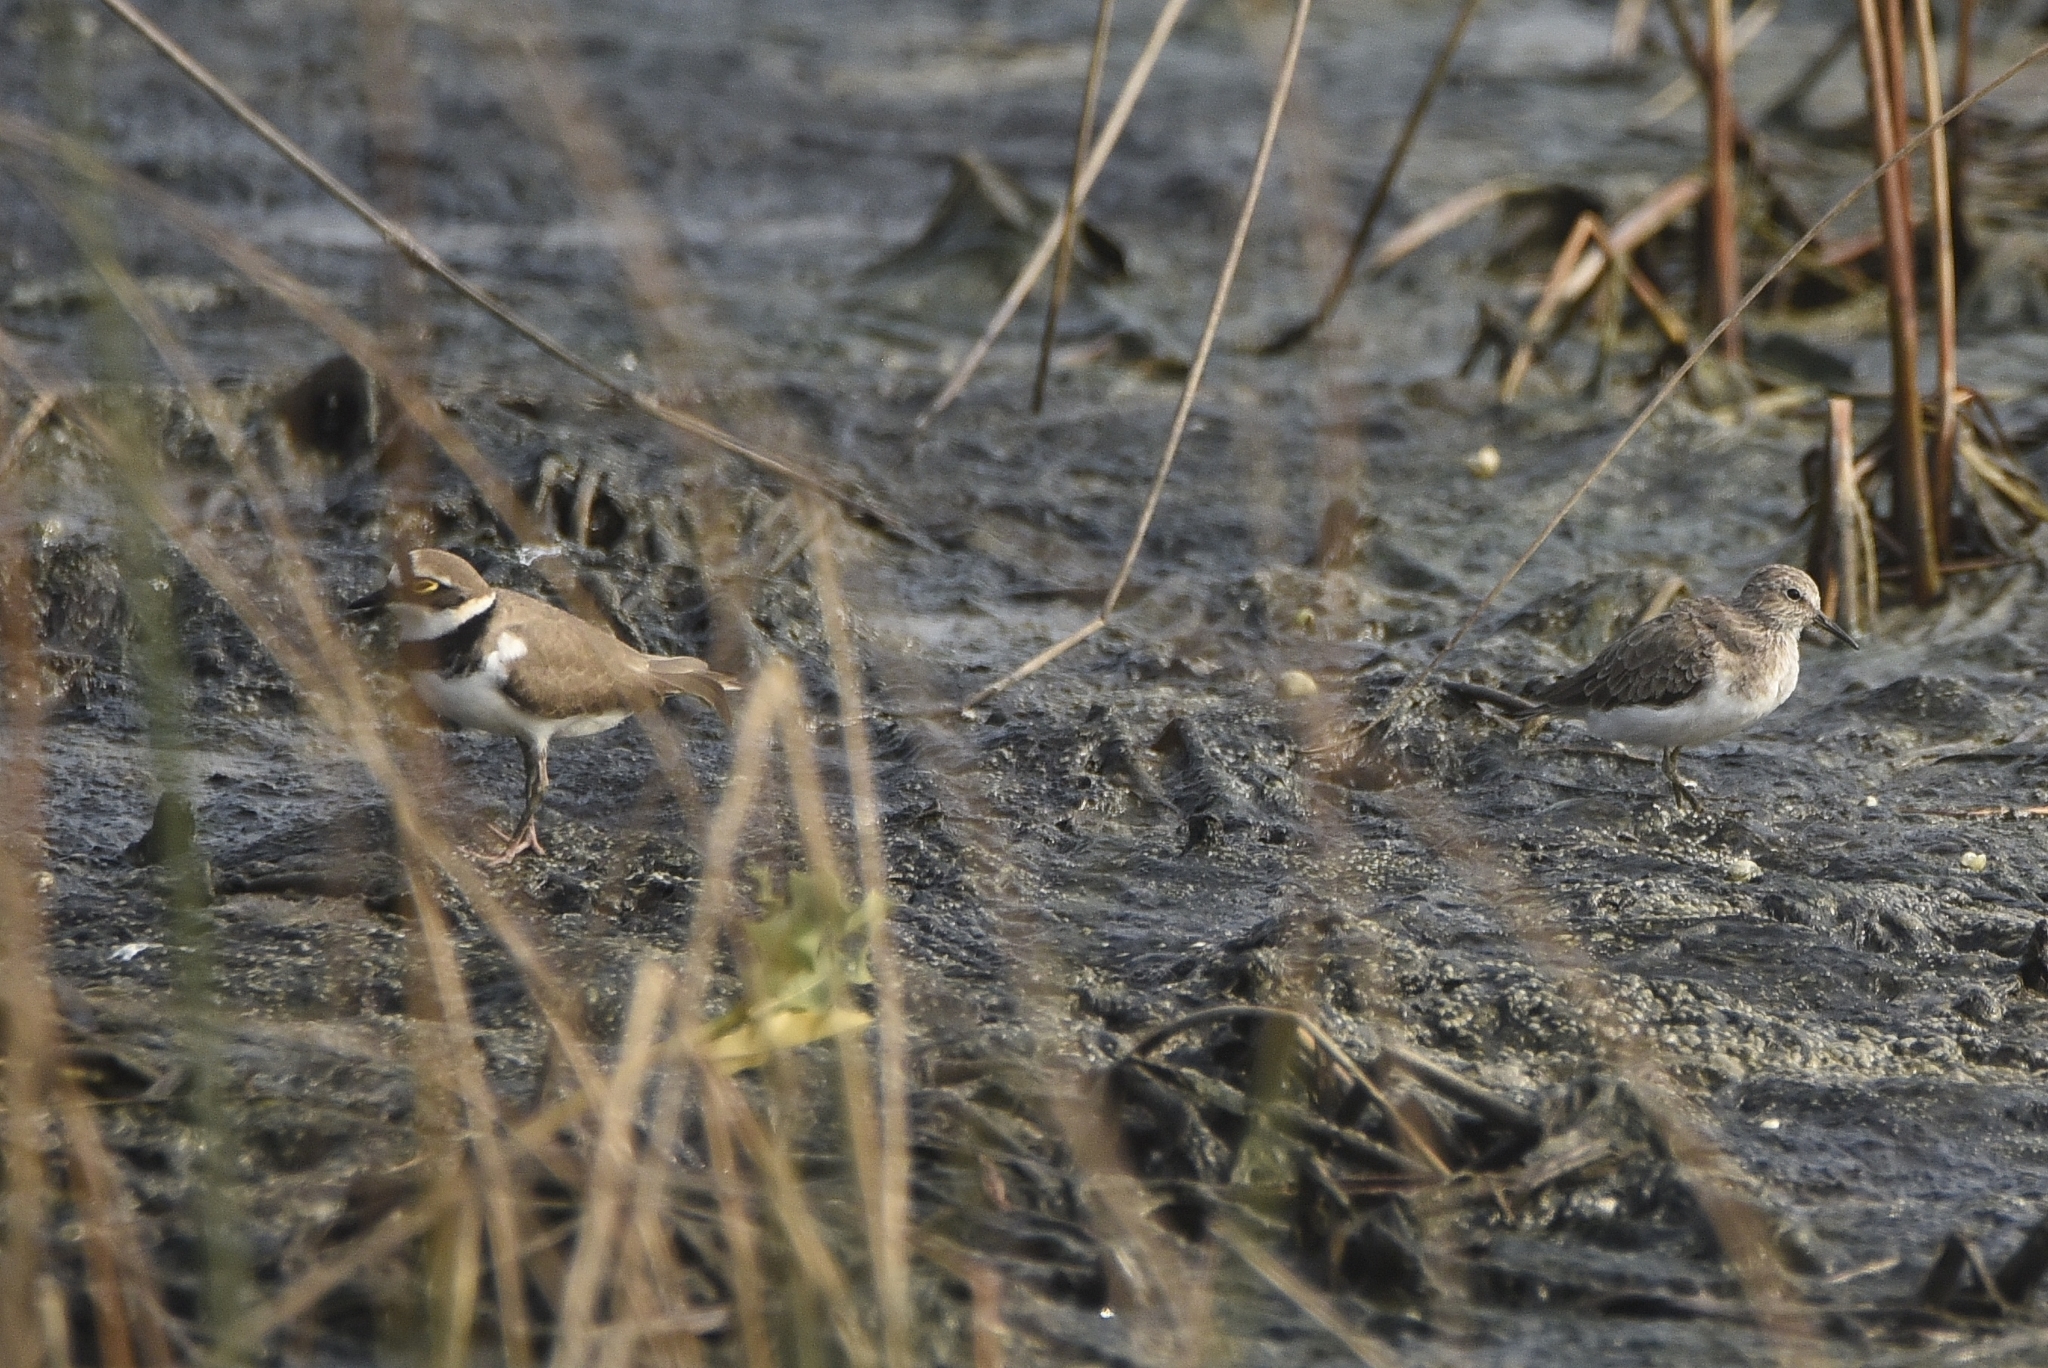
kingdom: Animalia
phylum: Chordata
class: Aves
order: Charadriiformes
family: Charadriidae
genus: Charadrius
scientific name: Charadrius dubius
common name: Little ringed plover
